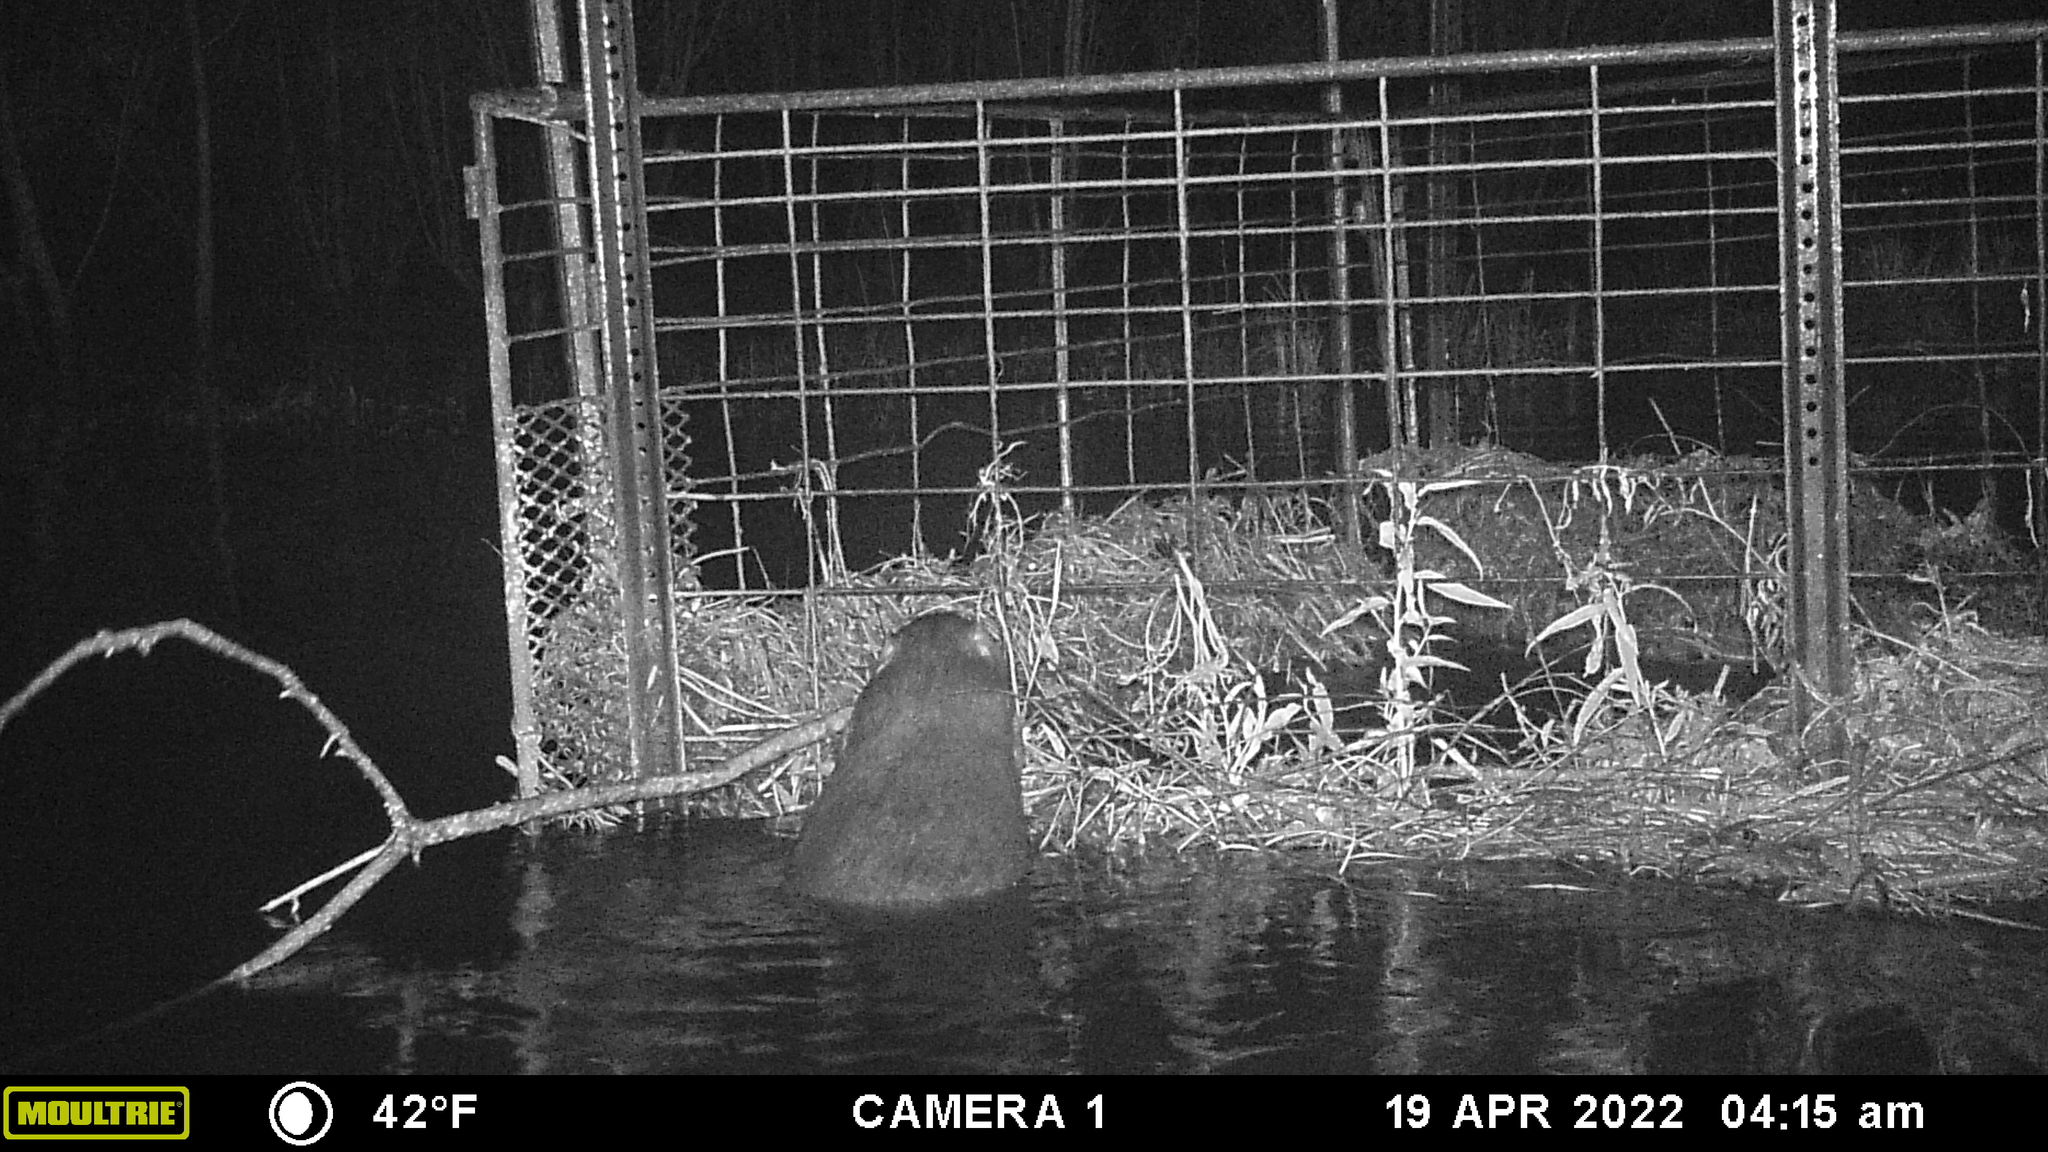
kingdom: Animalia
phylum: Chordata
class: Mammalia
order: Rodentia
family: Castoridae
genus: Castor
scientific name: Castor canadensis
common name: American beaver
